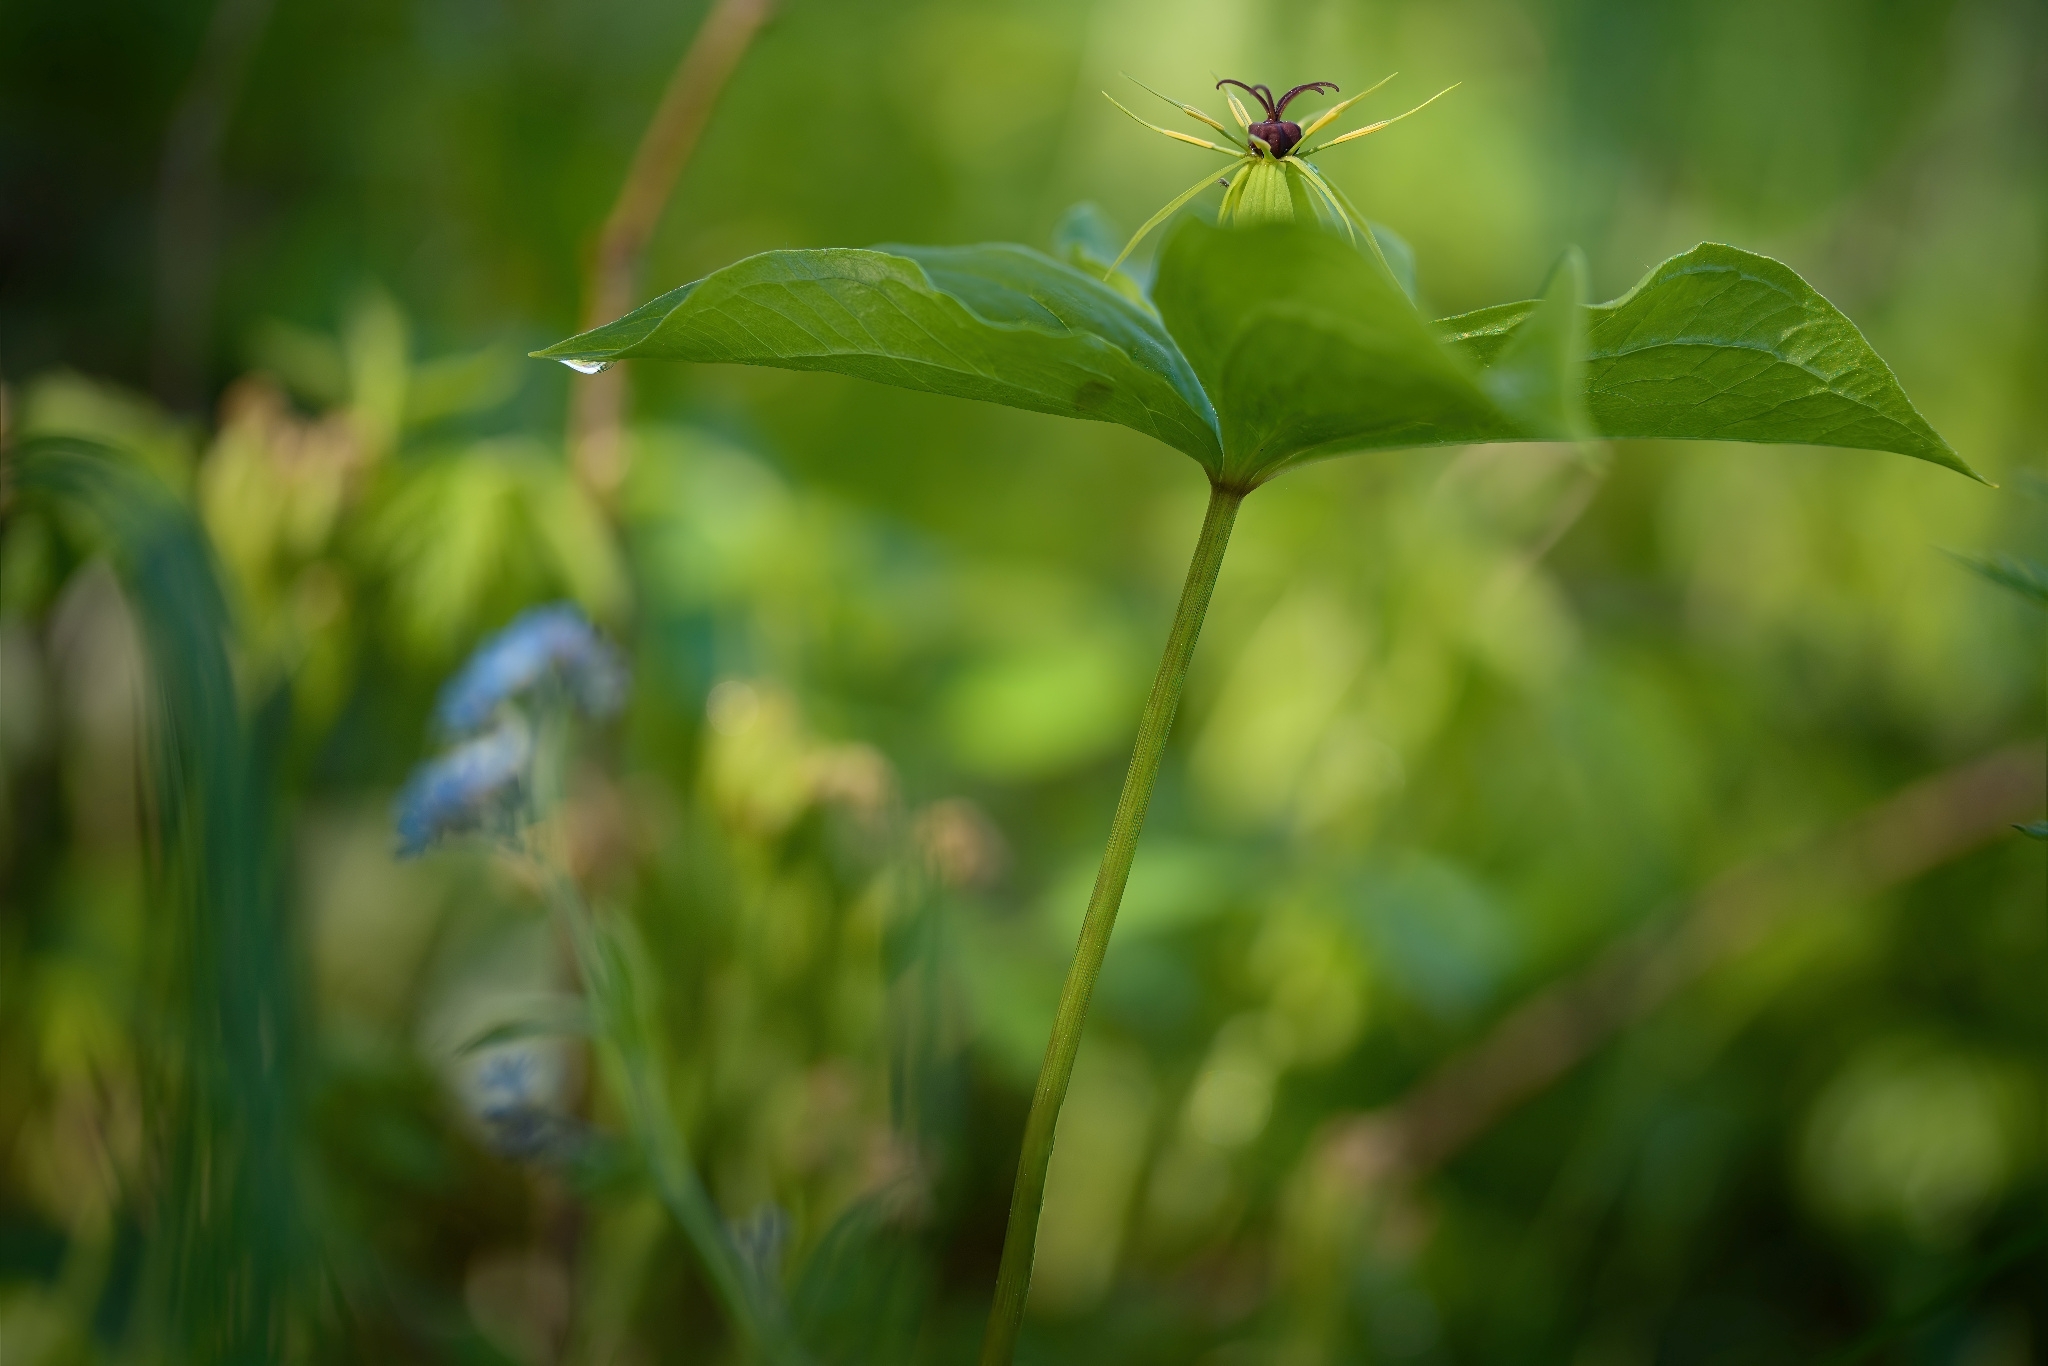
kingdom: Plantae
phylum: Tracheophyta
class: Liliopsida
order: Liliales
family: Melanthiaceae
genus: Paris
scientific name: Paris quadrifolia
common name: Herb-paris
